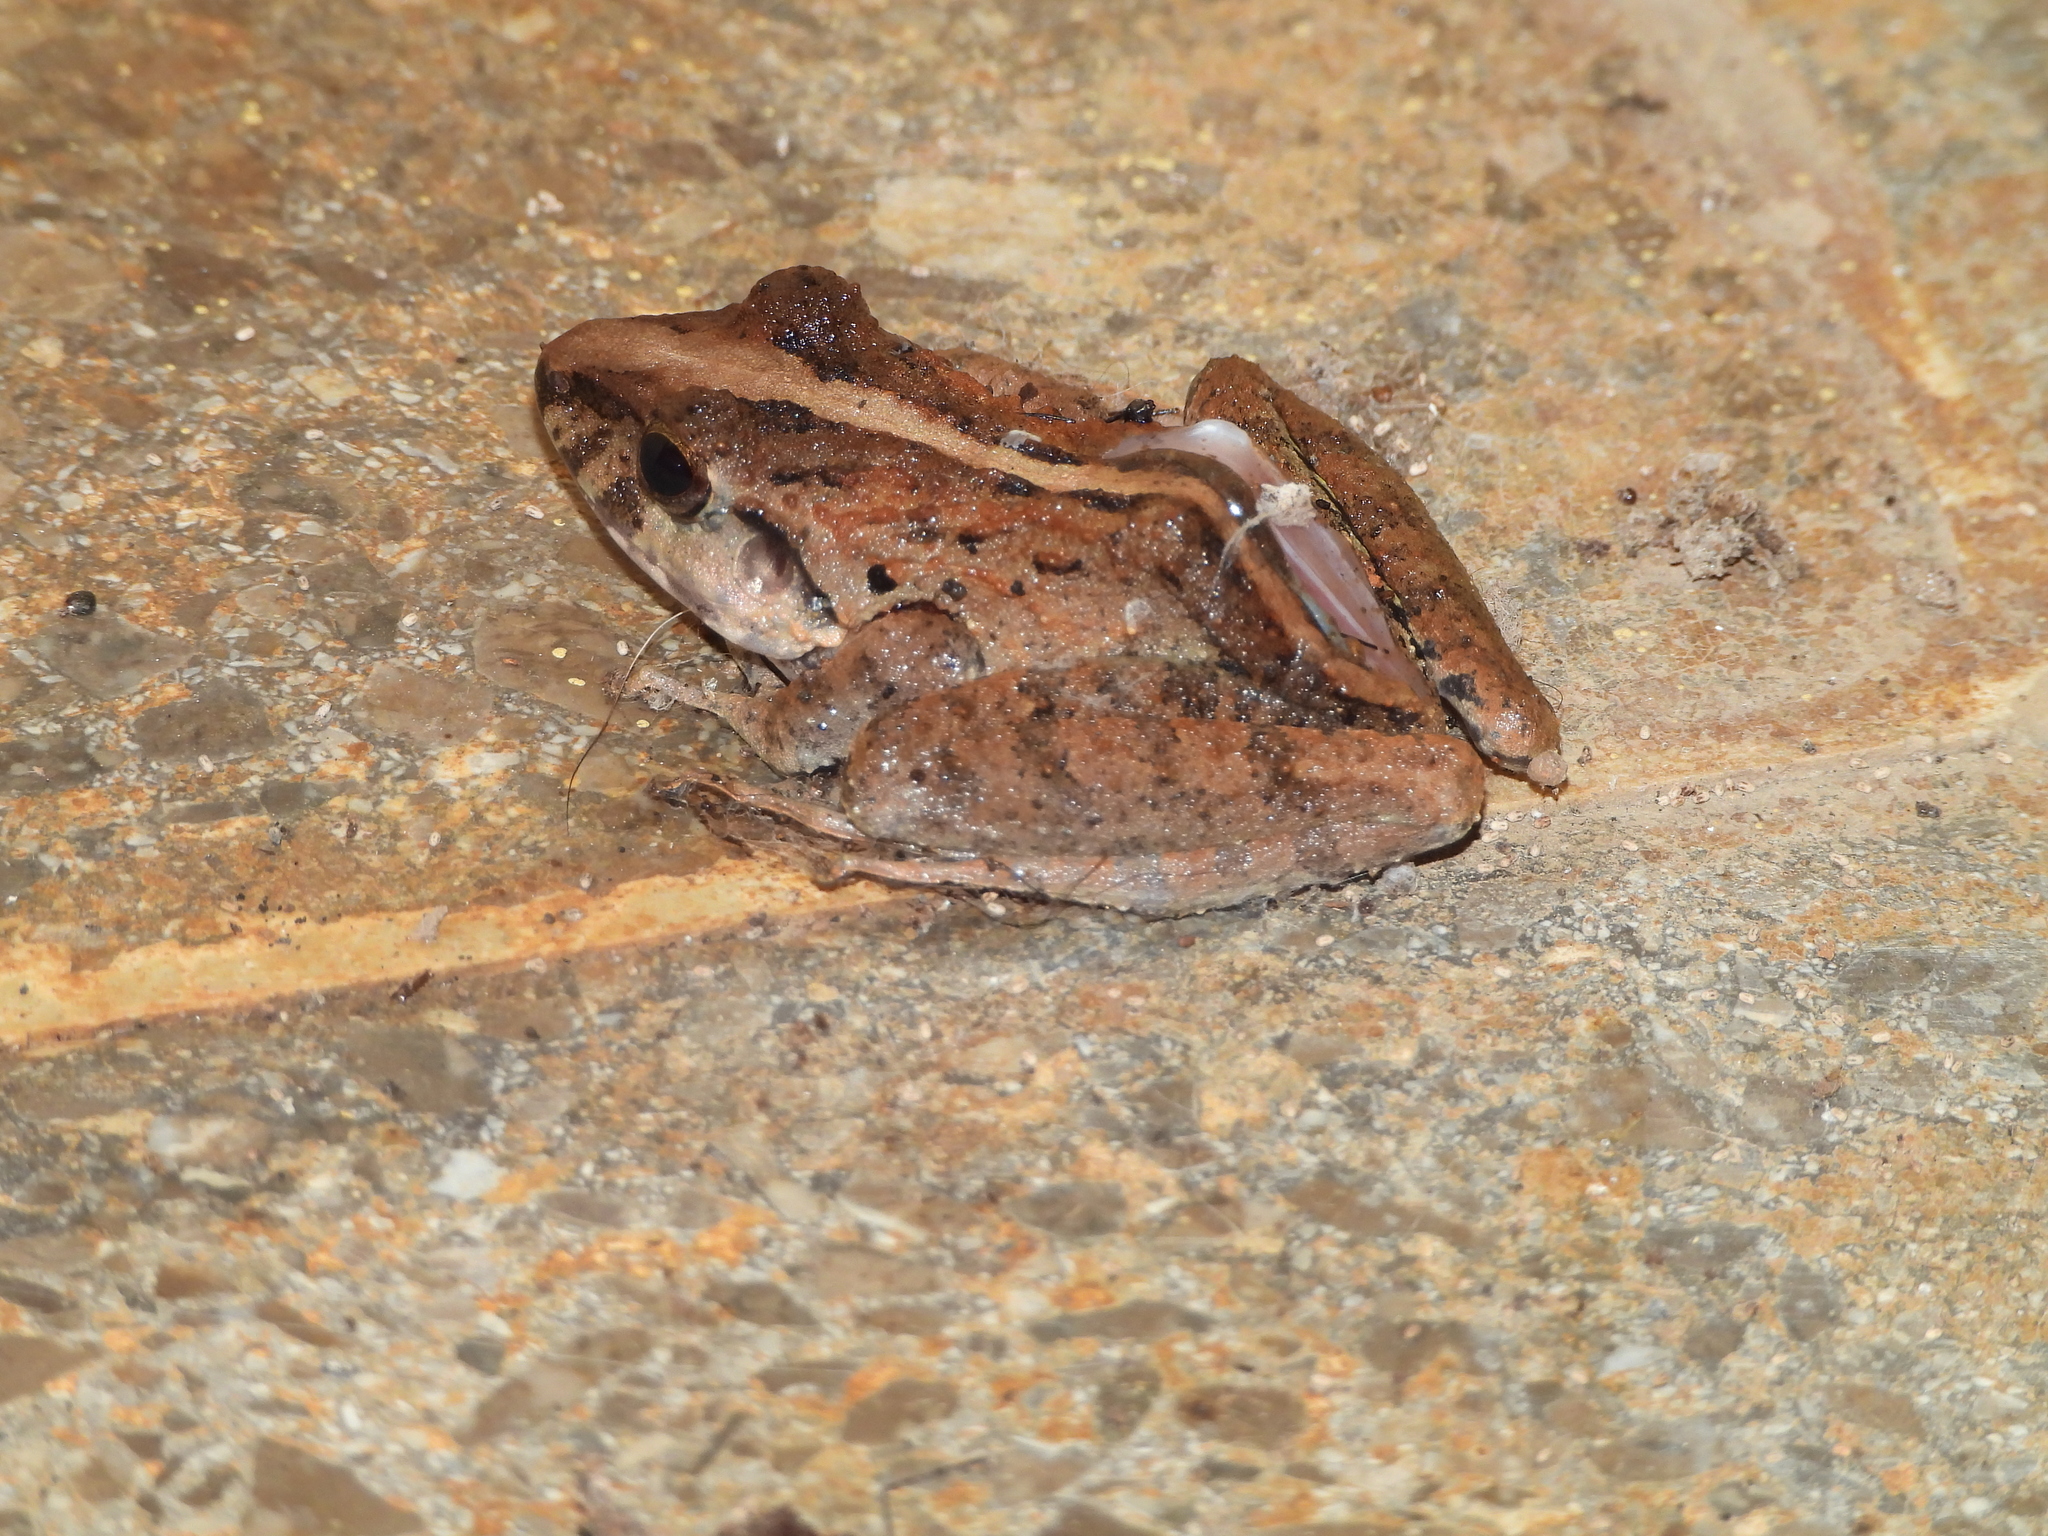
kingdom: Animalia
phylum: Chordata
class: Amphibia
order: Anura
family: Craugastoridae
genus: Craugastor
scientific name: Craugastor fitzingeri
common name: Fitzinger's robber frog
